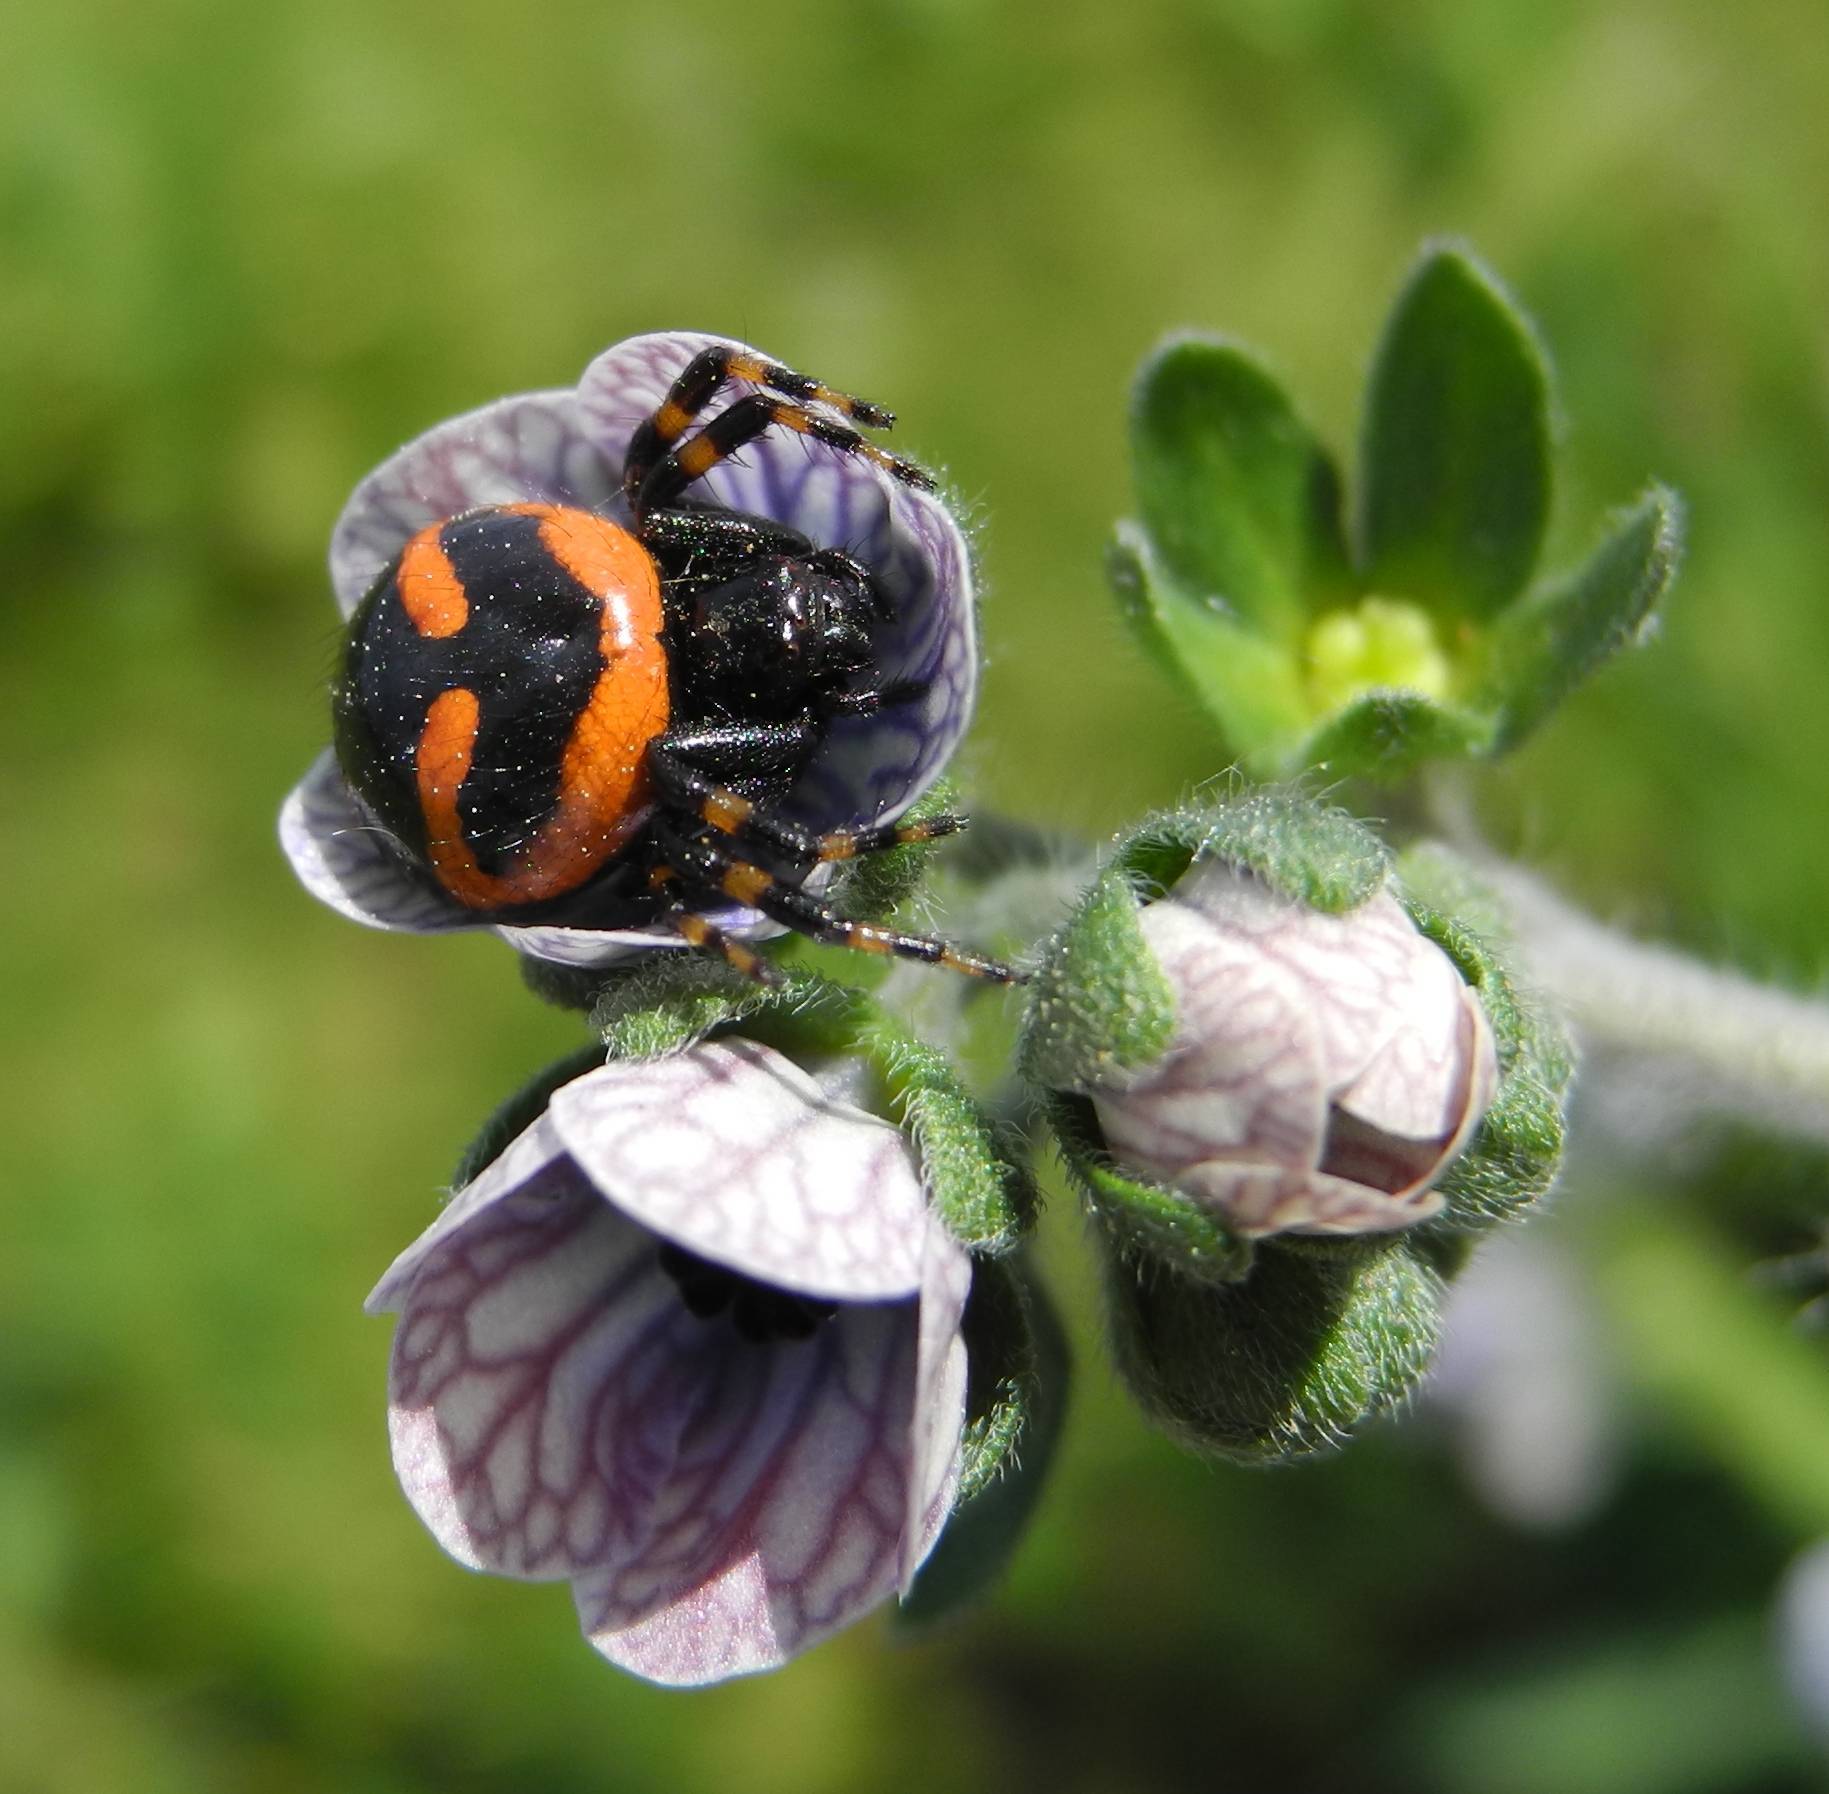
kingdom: Animalia
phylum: Arthropoda
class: Arachnida
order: Araneae
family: Thomisidae
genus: Synema
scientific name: Synema plorator
